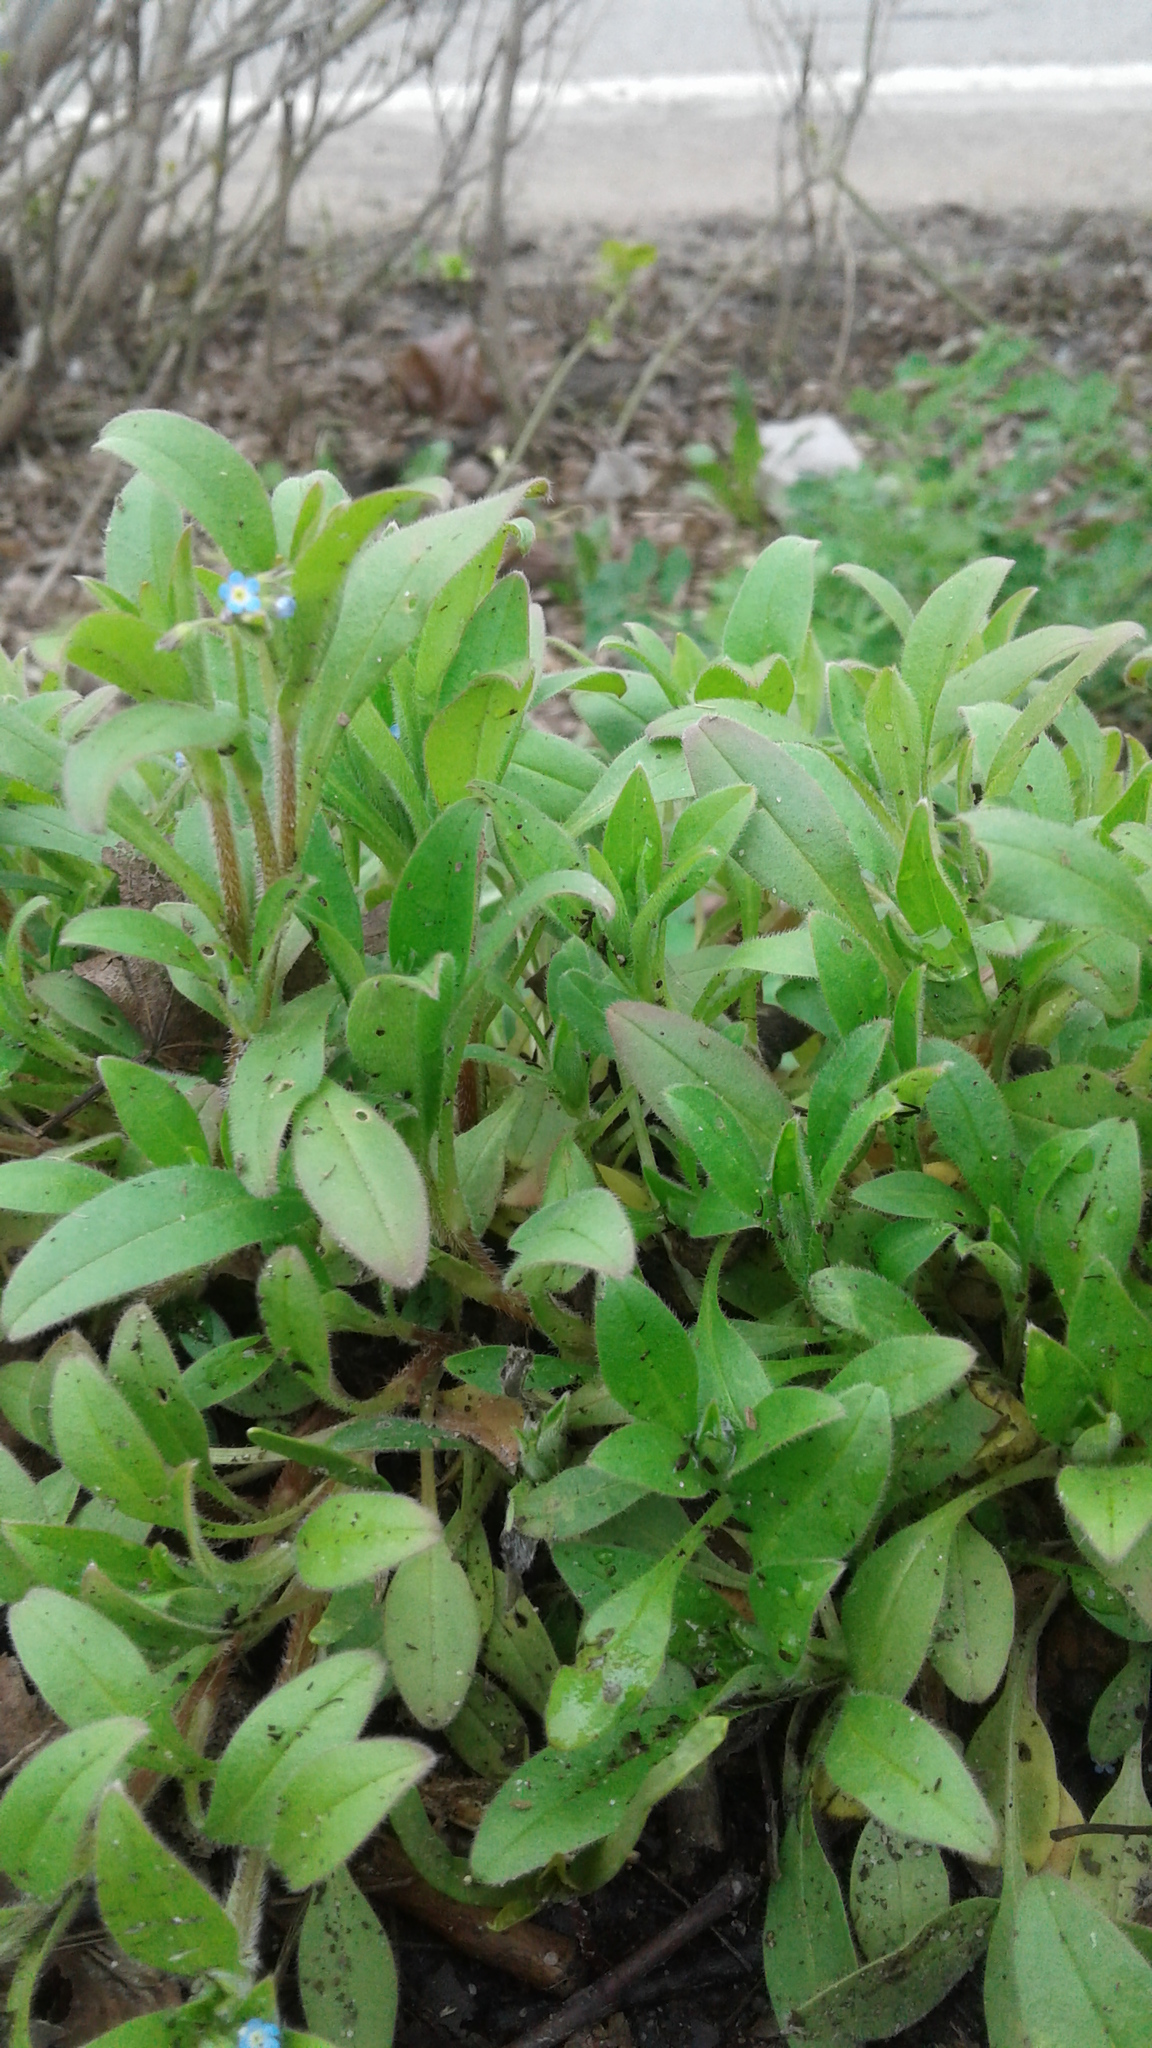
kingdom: Plantae
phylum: Tracheophyta
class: Magnoliopsida
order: Boraginales
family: Boraginaceae
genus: Myosotis
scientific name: Myosotis sparsiflora
